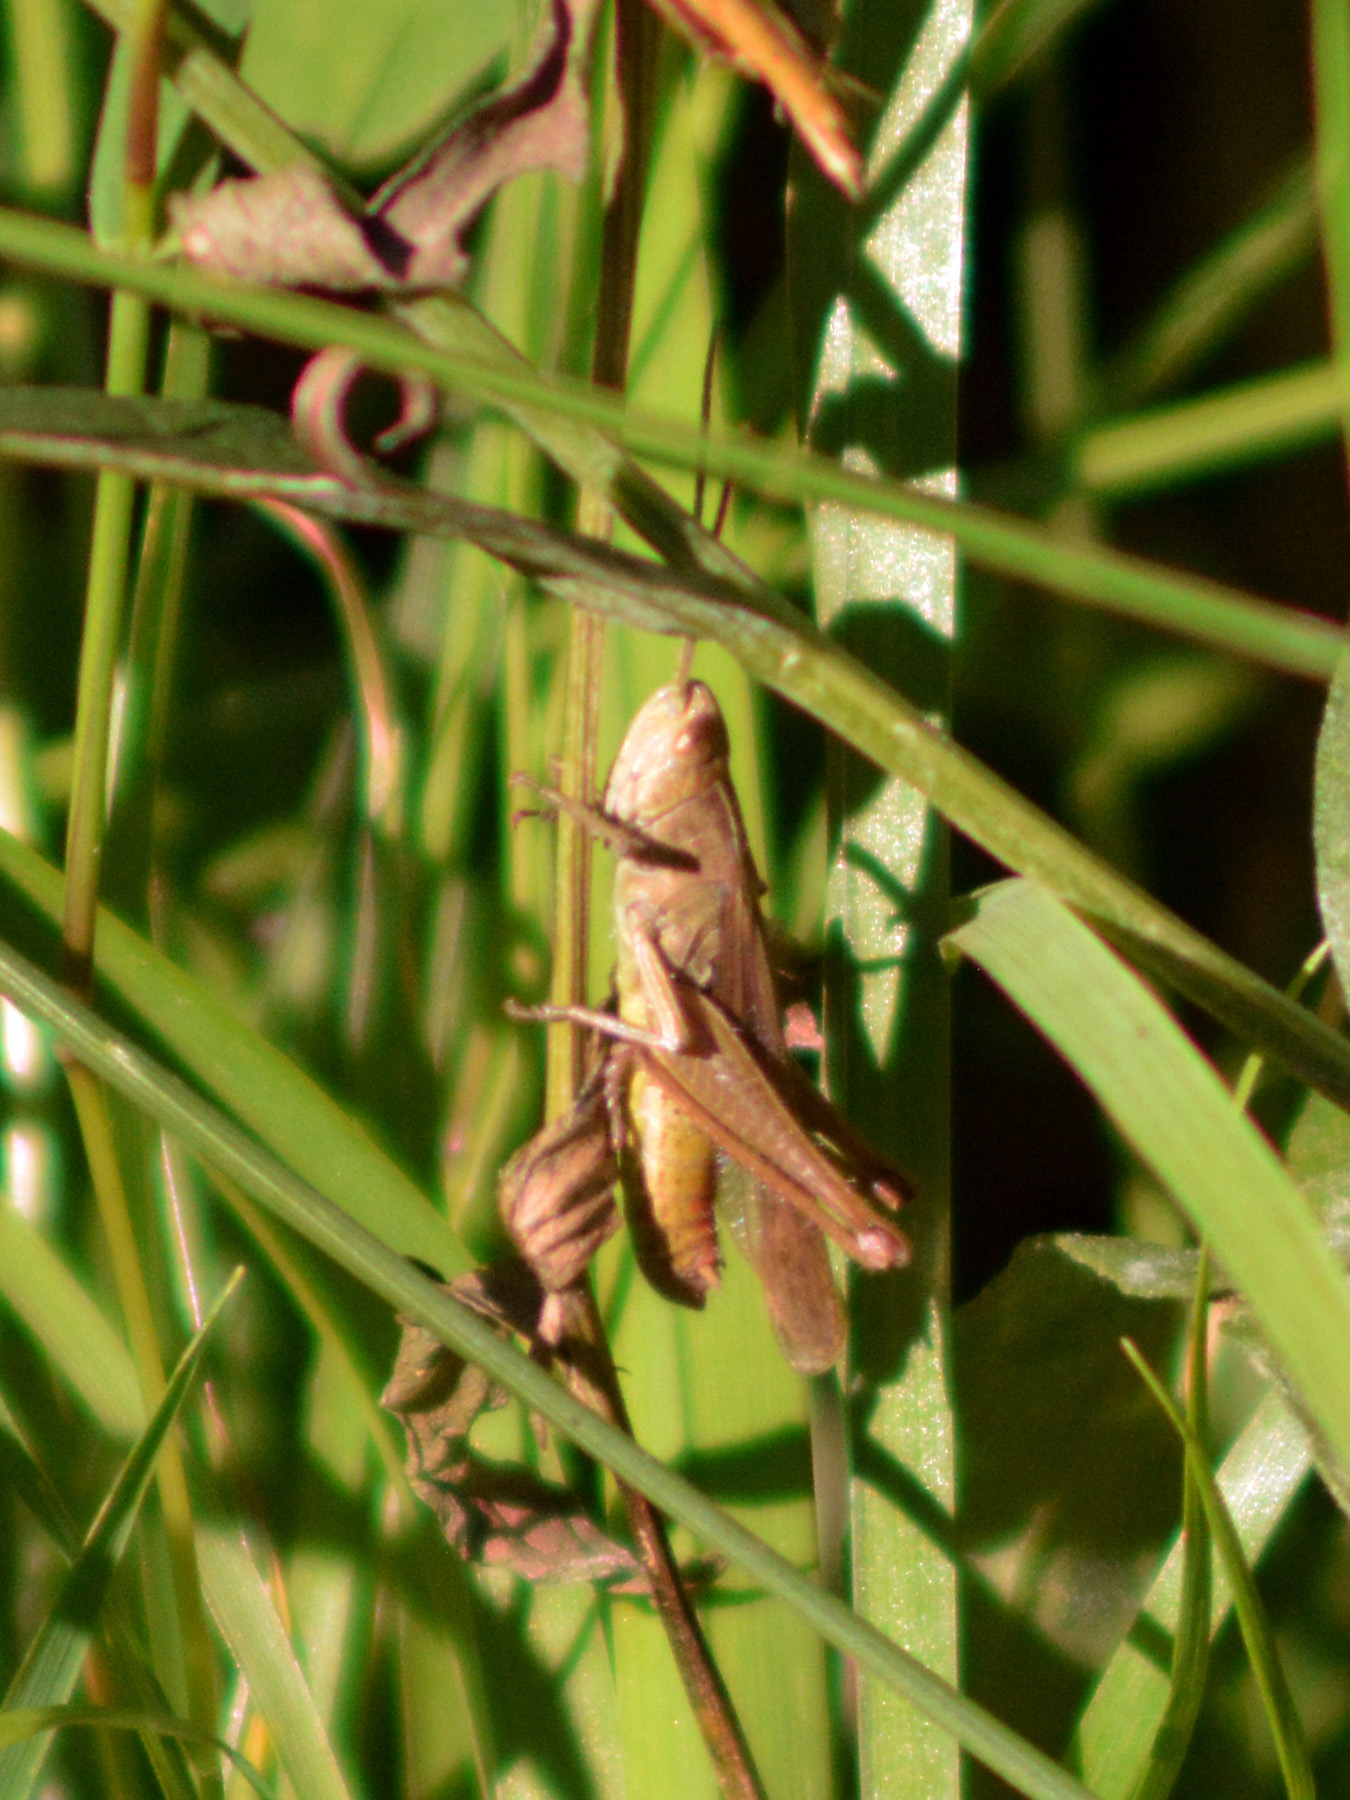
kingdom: Animalia
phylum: Arthropoda
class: Insecta
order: Orthoptera
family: Acrididae
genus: Chorthippus
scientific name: Chorthippus dorsatus
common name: Steppe grasshopper
